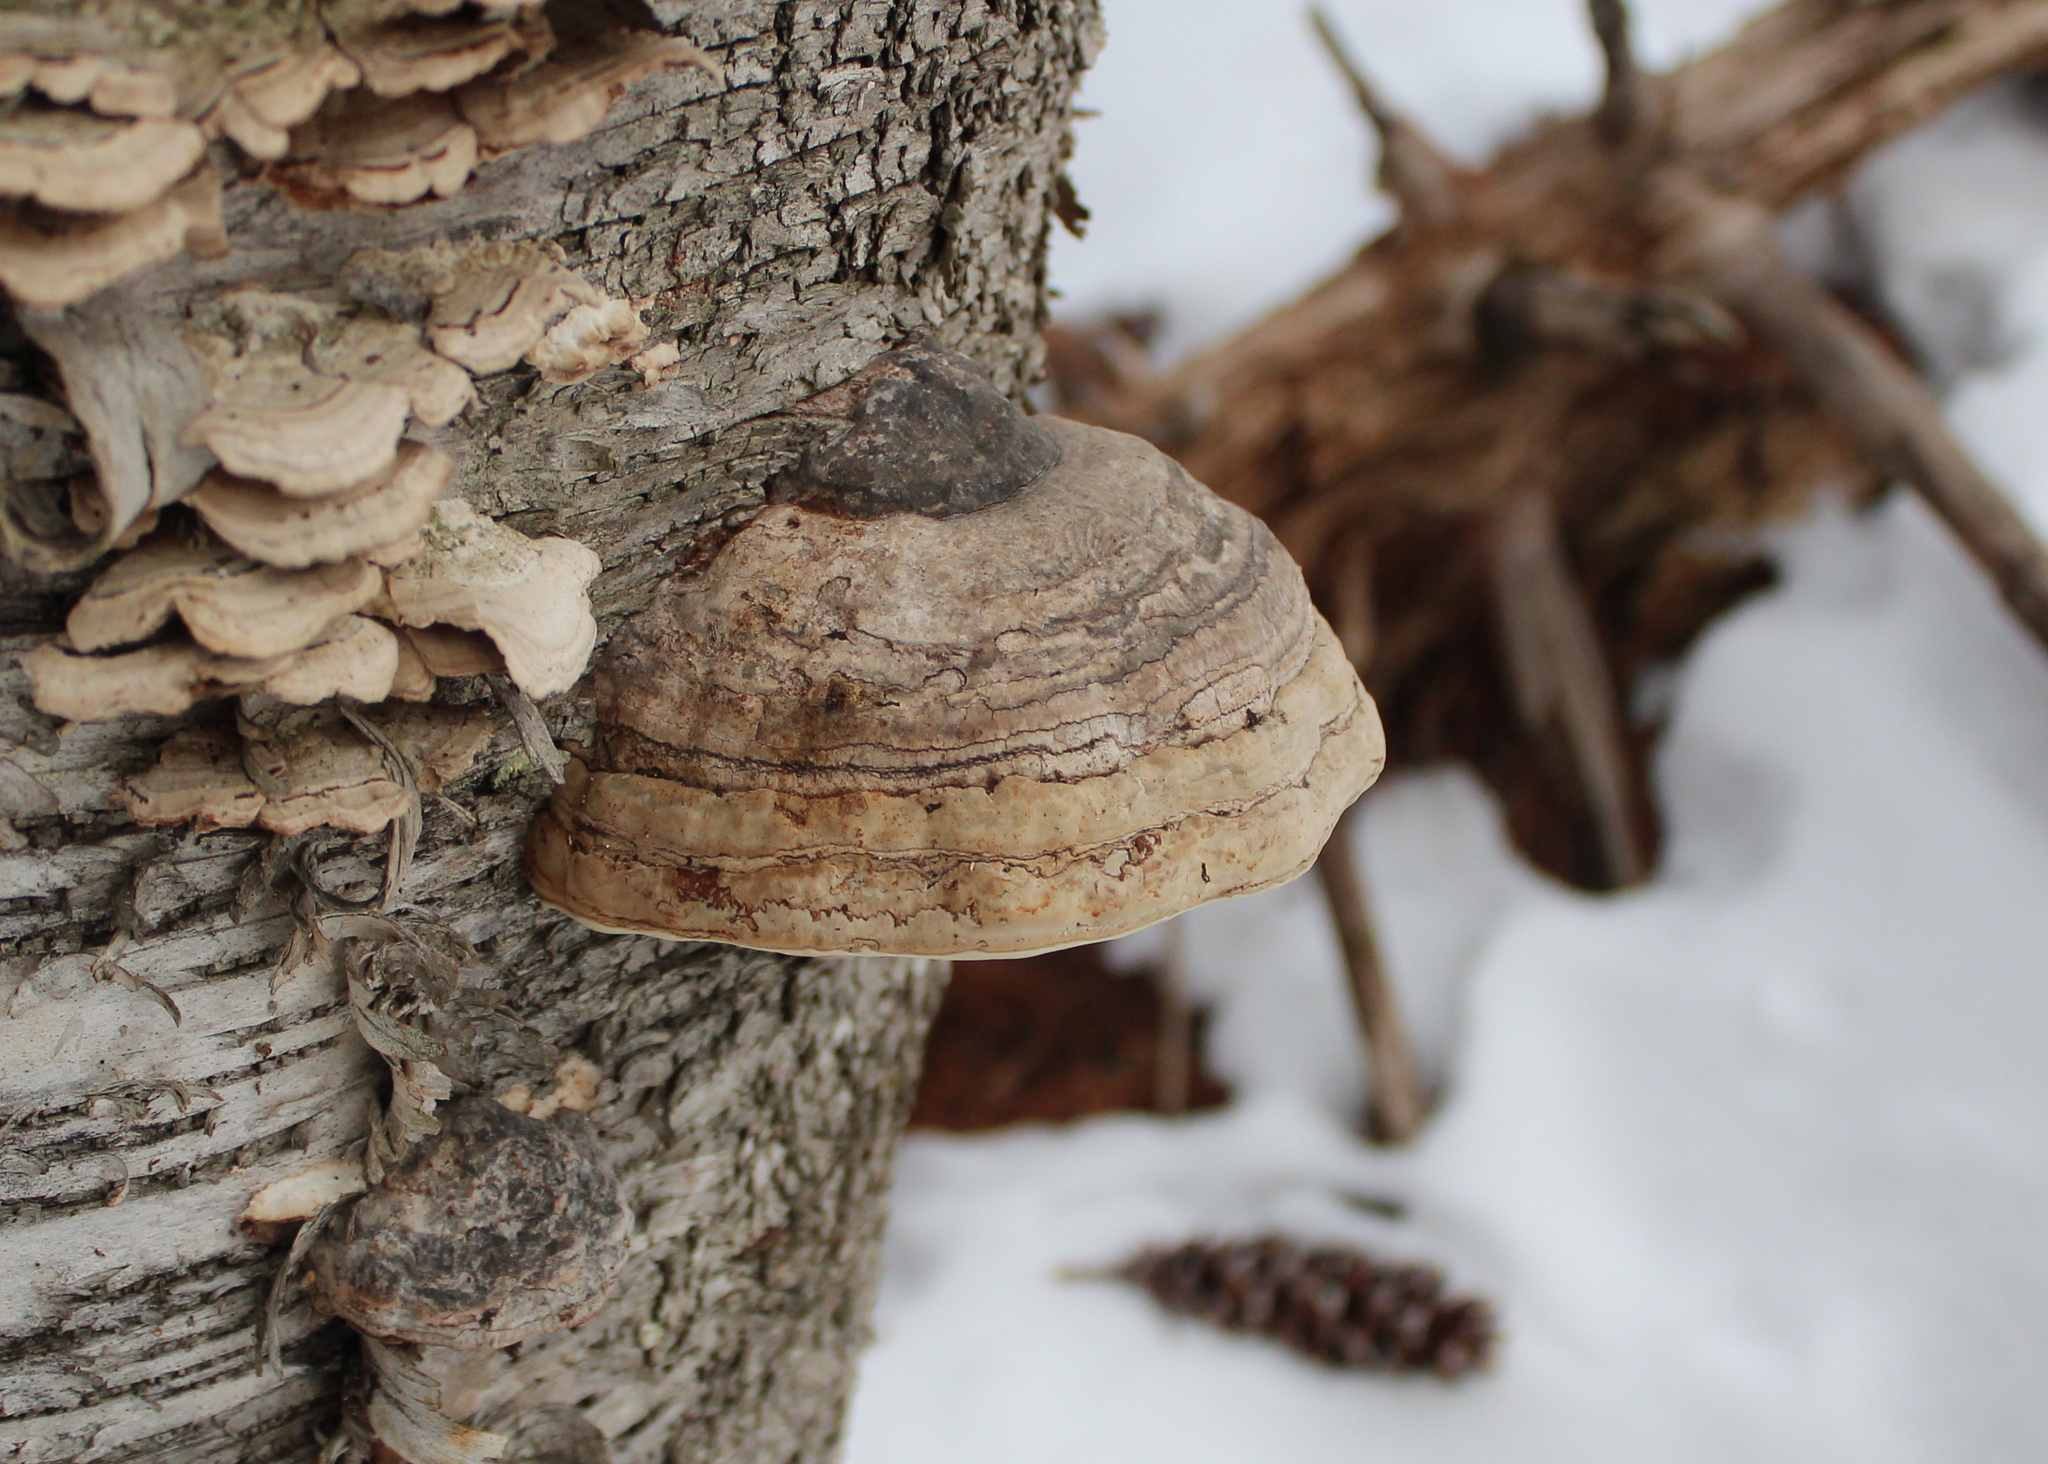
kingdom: Fungi
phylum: Basidiomycota
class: Agaricomycetes
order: Polyporales
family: Polyporaceae
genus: Fomes
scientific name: Fomes fomentarius
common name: Hoof fungus
